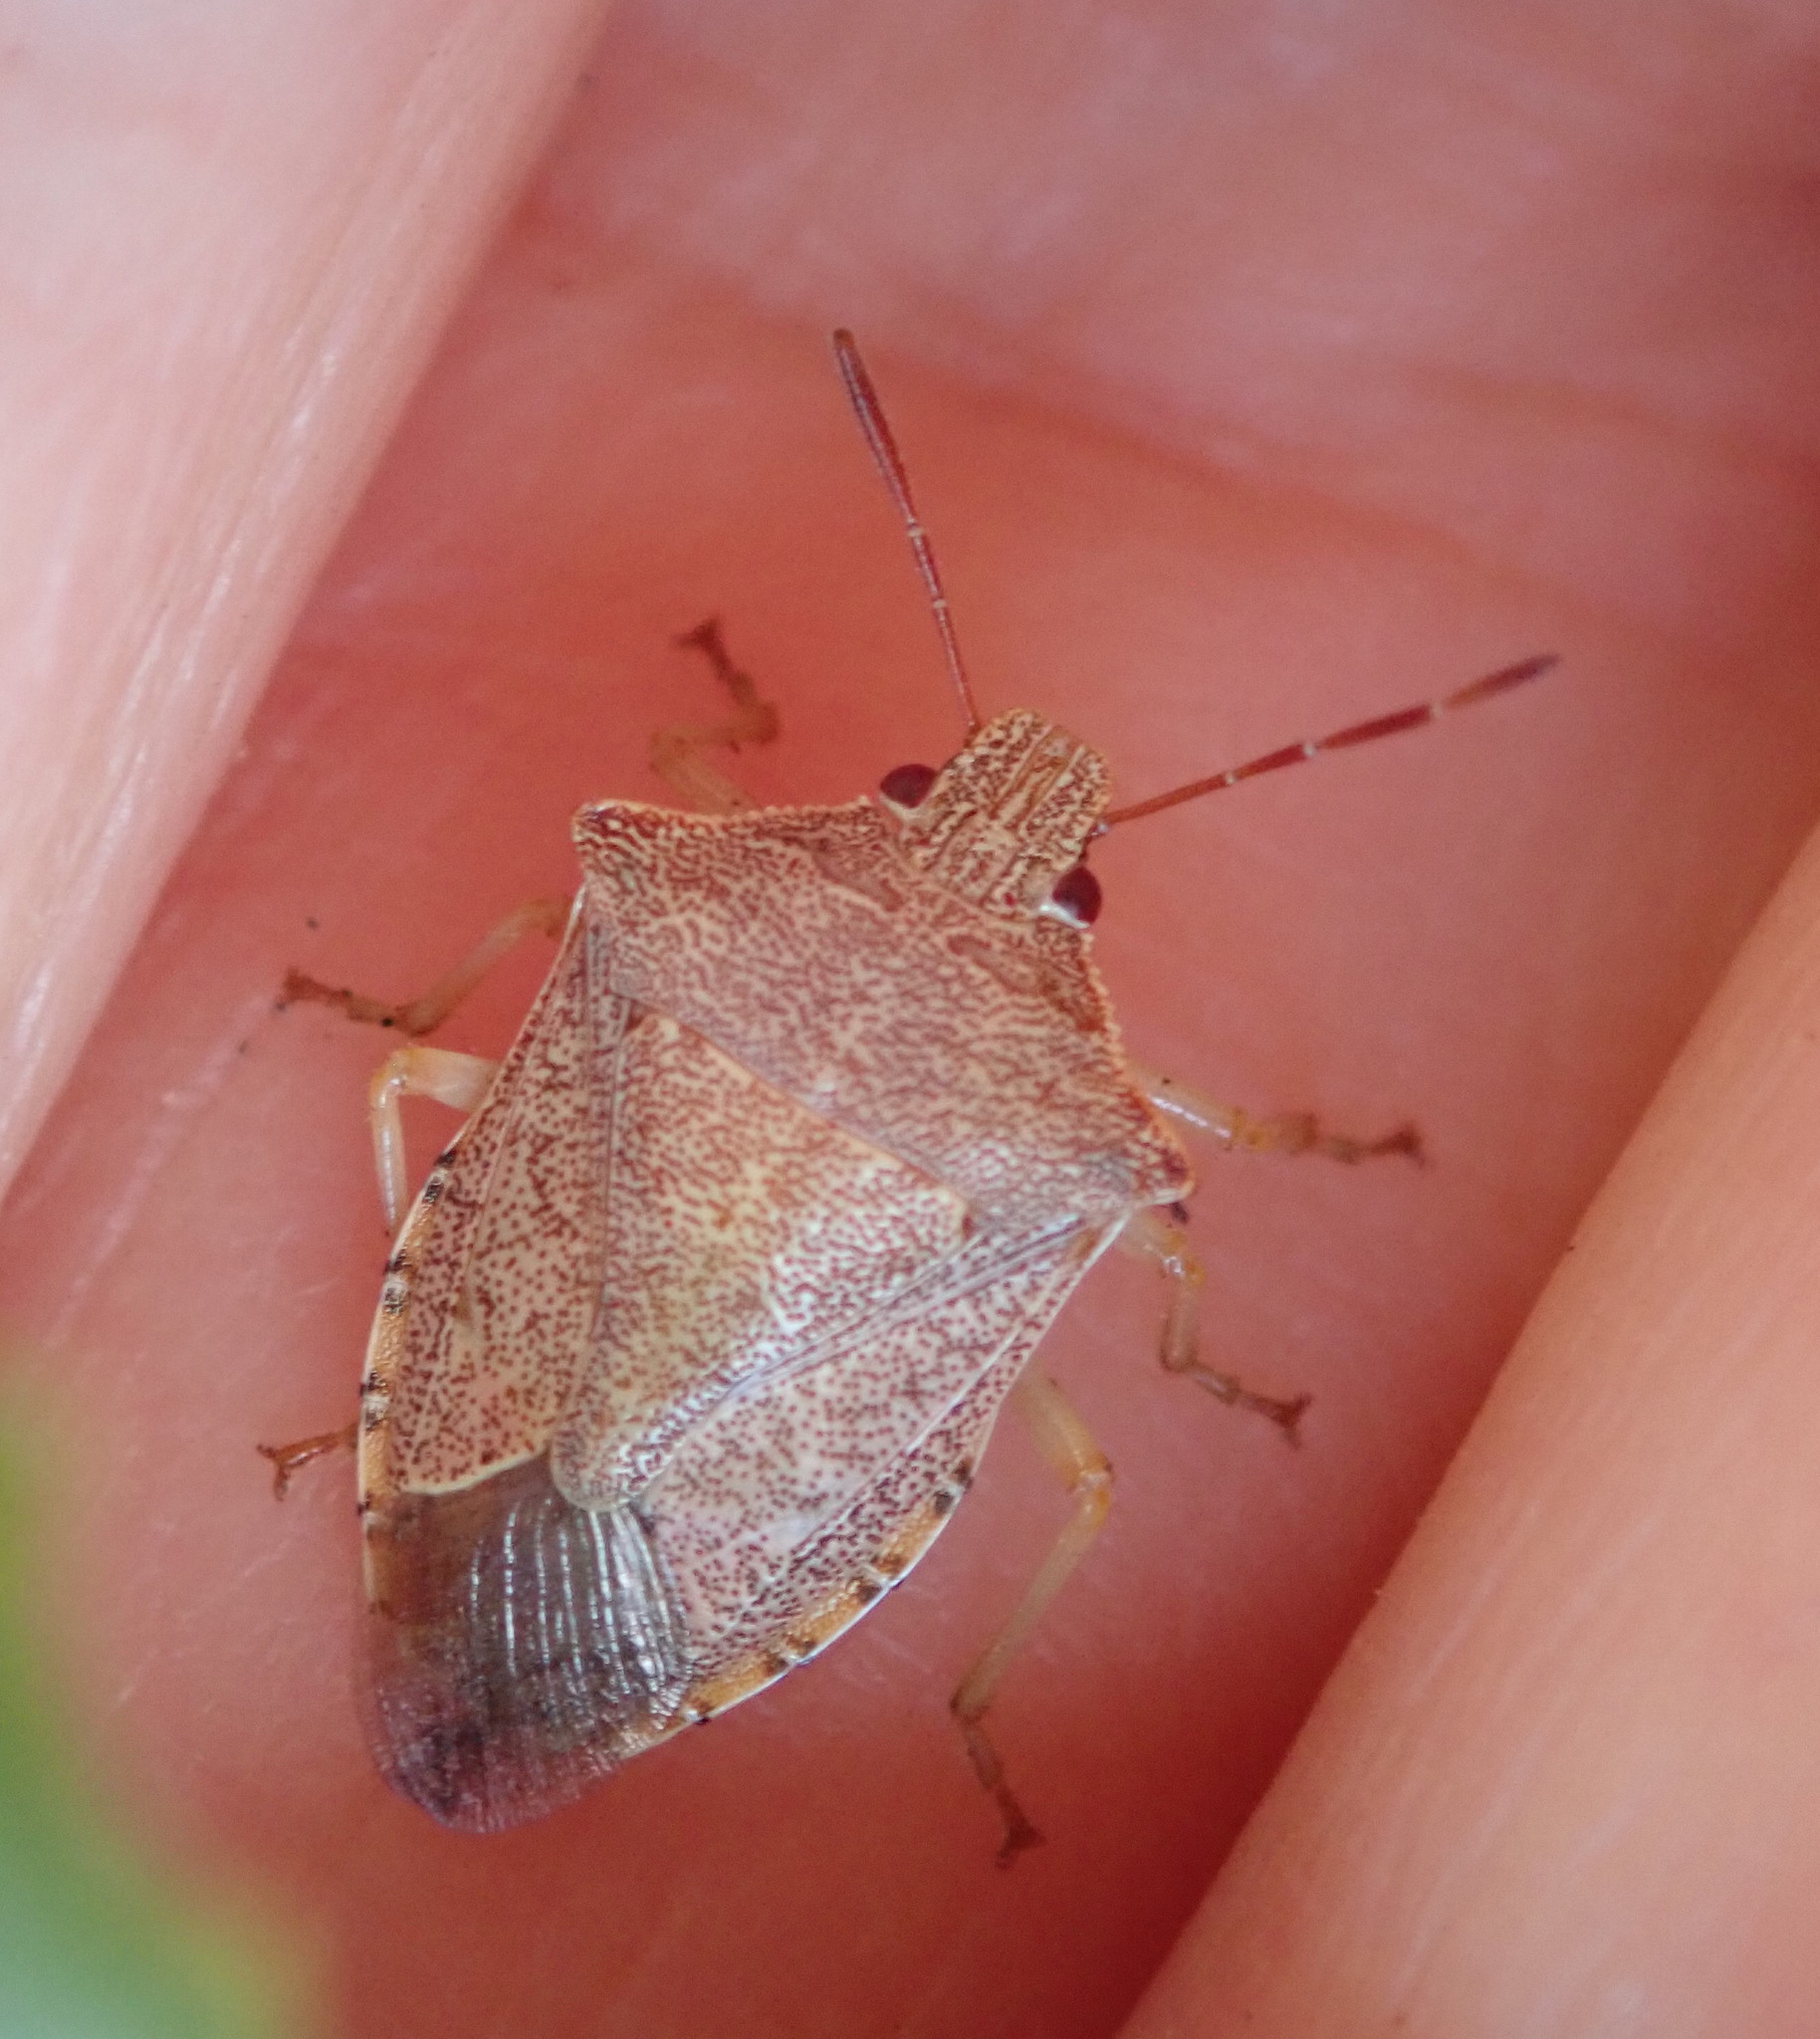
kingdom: Animalia
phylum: Arthropoda
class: Insecta
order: Hemiptera
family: Pentatomidae
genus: Podisus
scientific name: Podisus maculiventris
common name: Spined soldier bug
